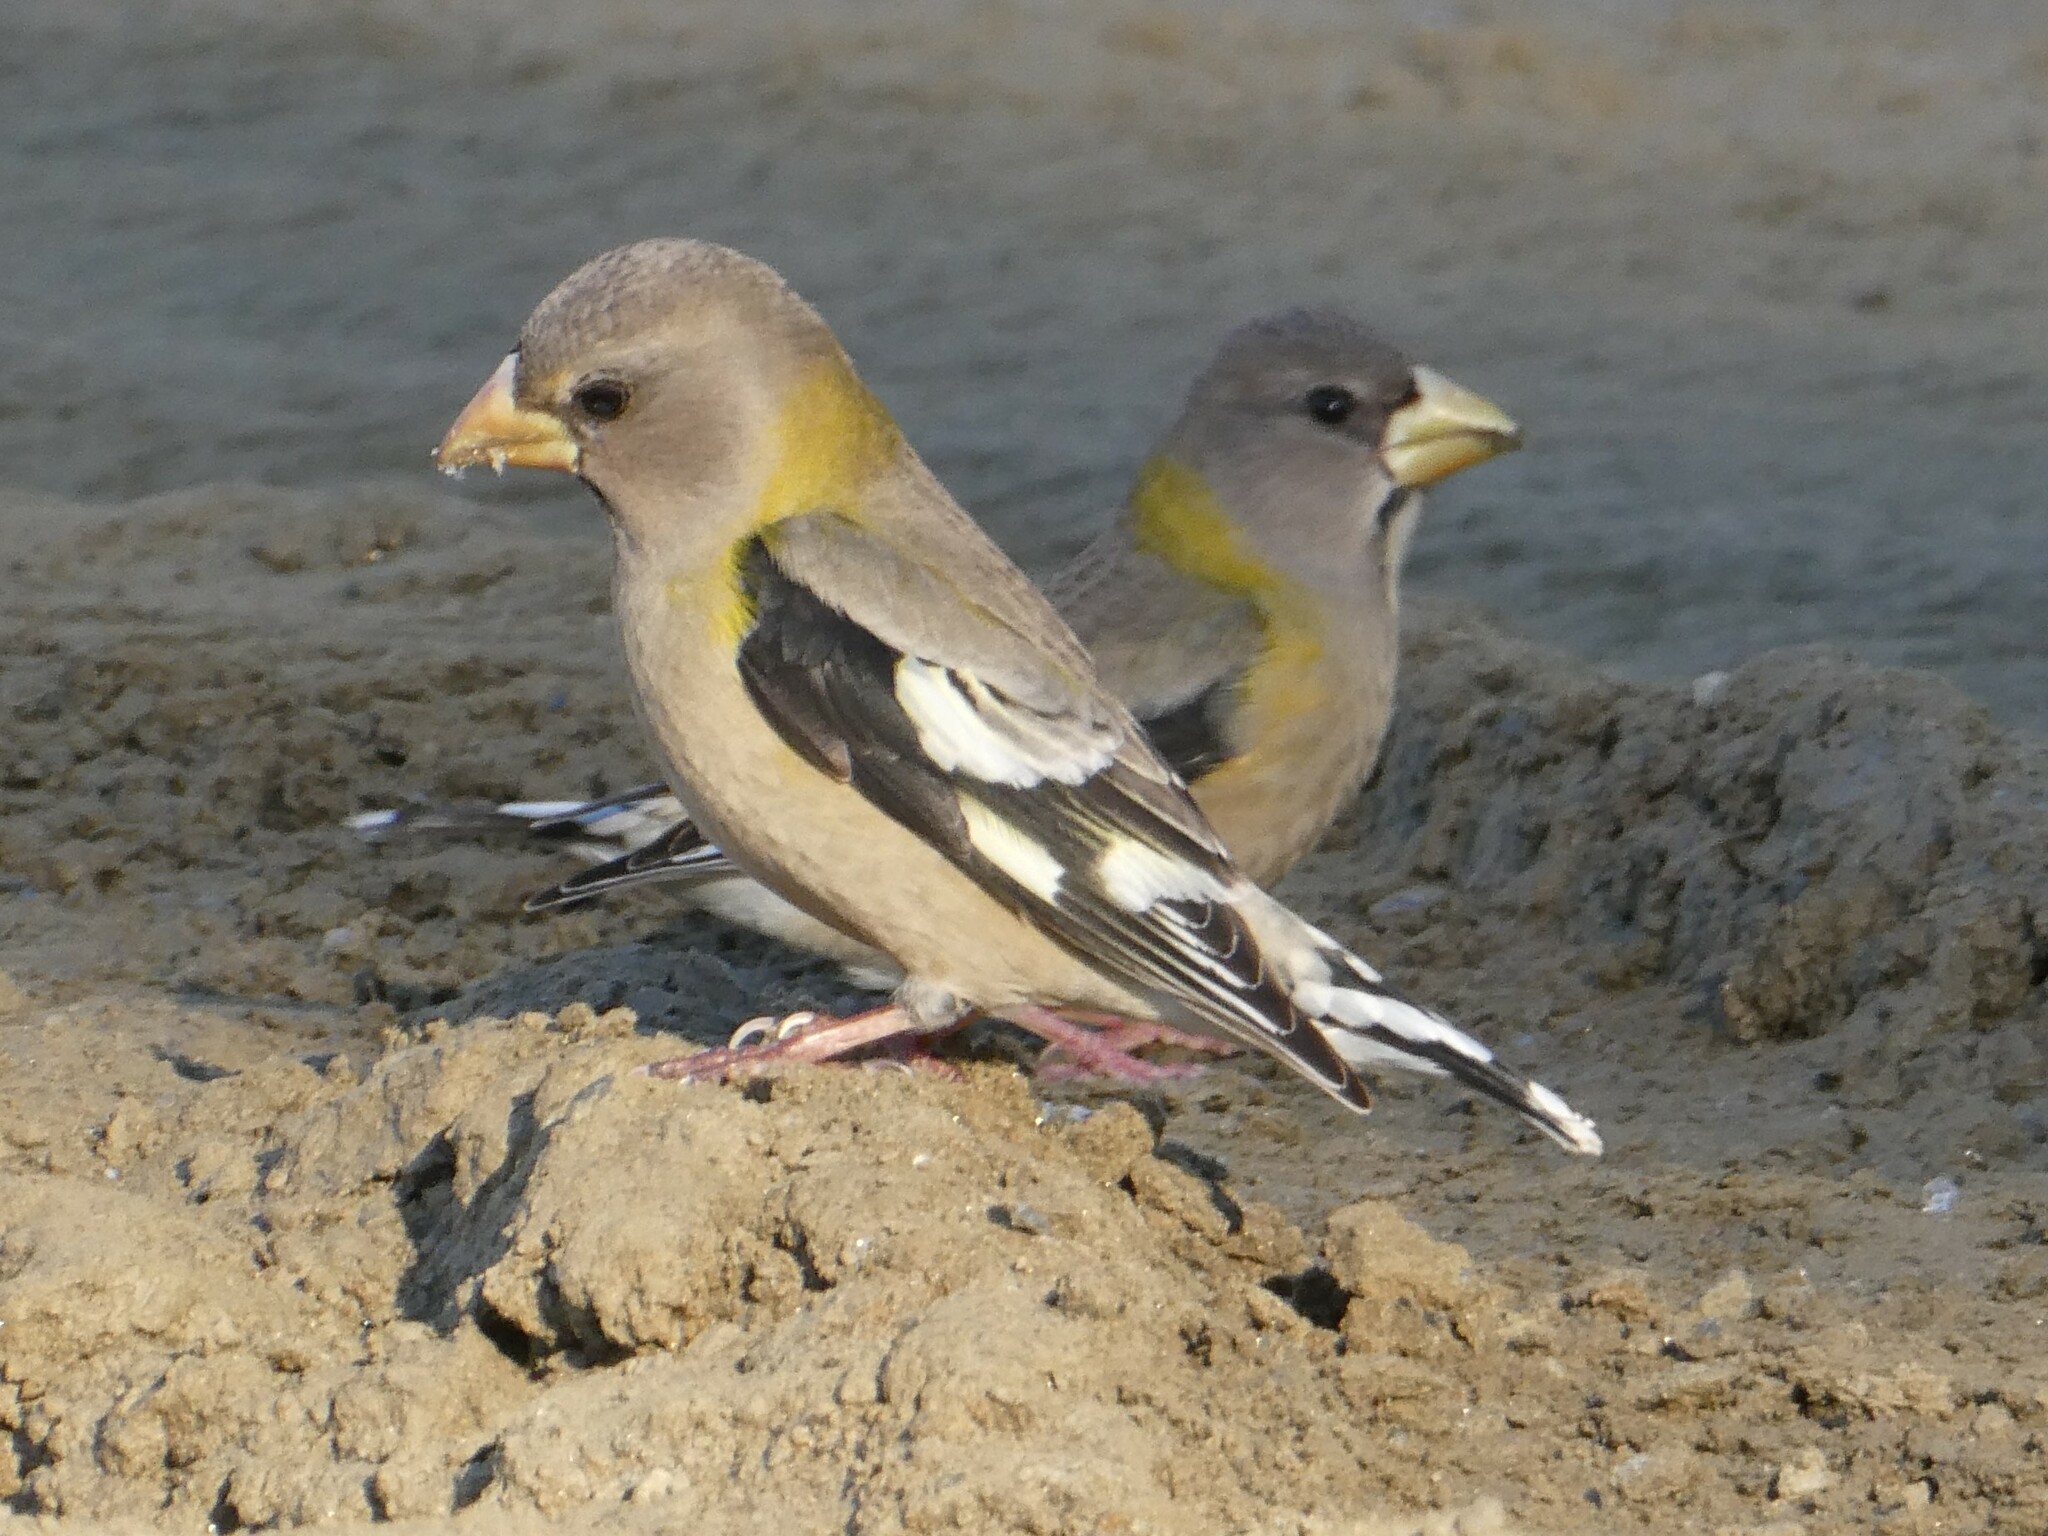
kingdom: Animalia
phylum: Chordata
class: Aves
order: Passeriformes
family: Fringillidae
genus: Hesperiphona
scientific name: Hesperiphona vespertina
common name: Evening grosbeak
